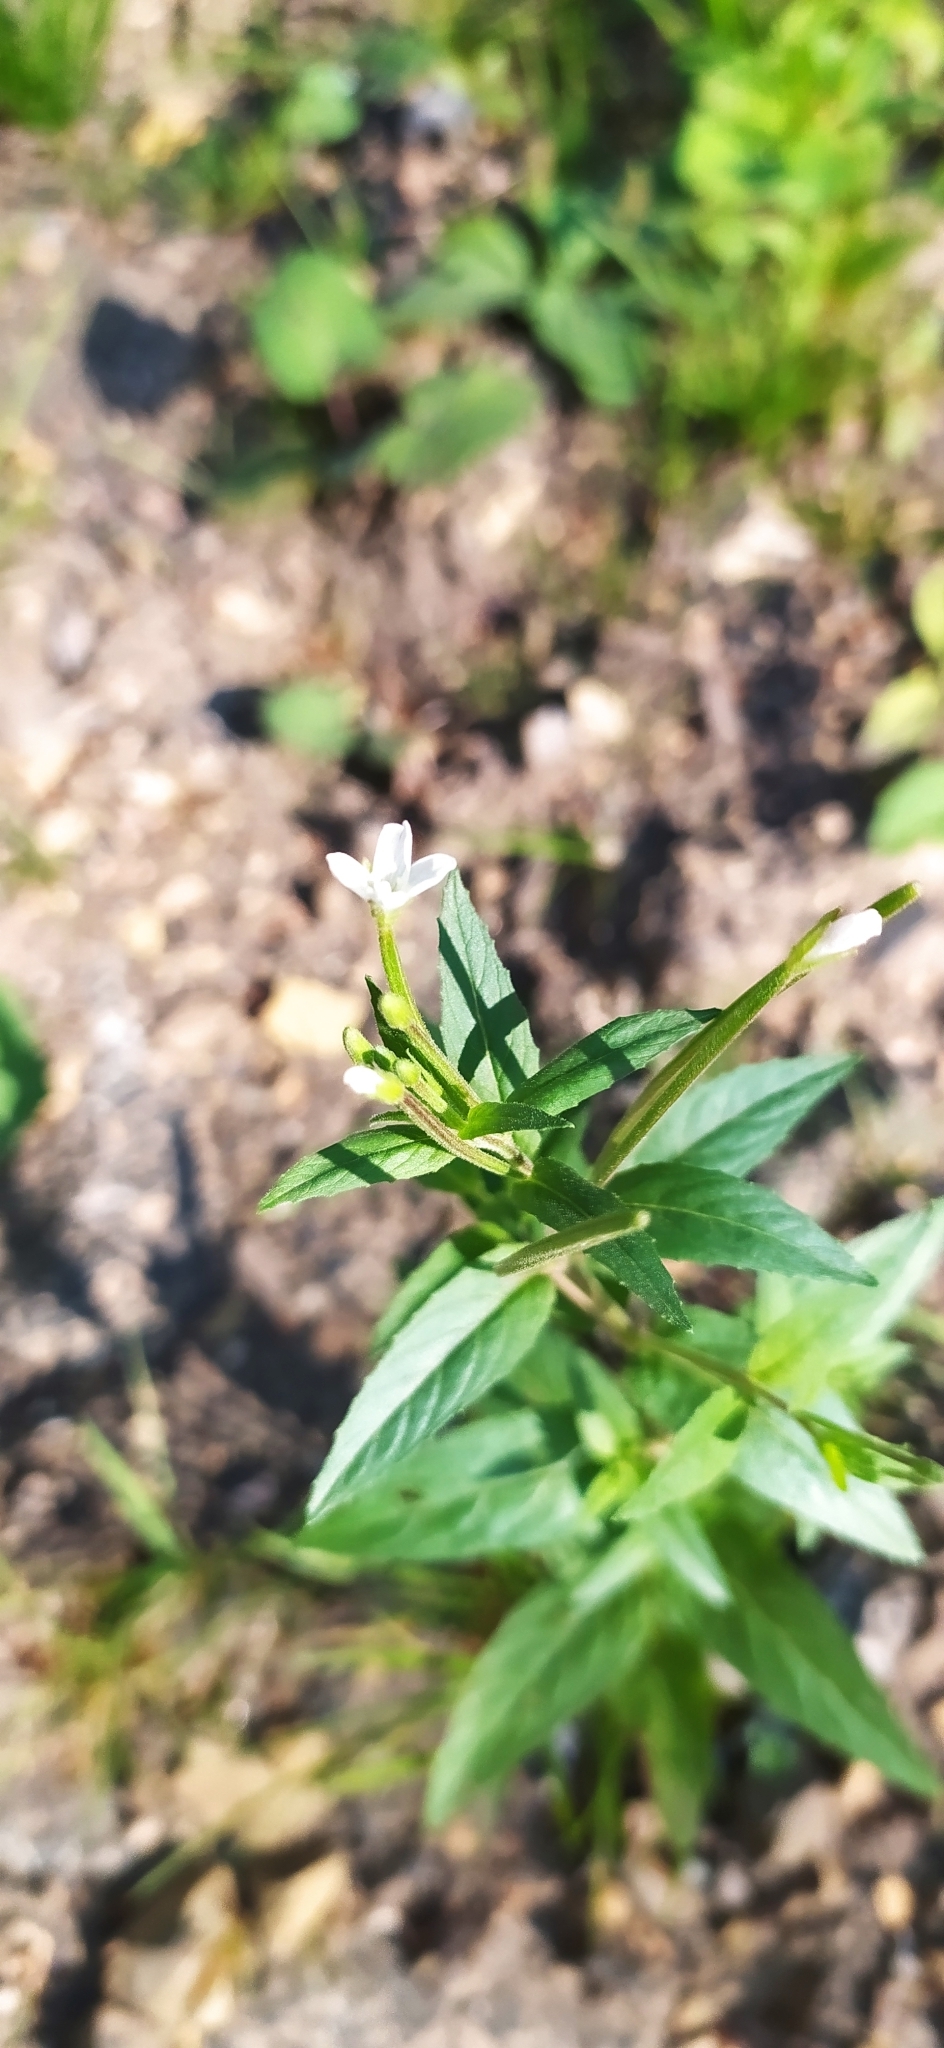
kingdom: Plantae
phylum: Tracheophyta
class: Magnoliopsida
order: Myrtales
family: Onagraceae
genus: Epilobium
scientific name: Epilobium pseudorubescens
